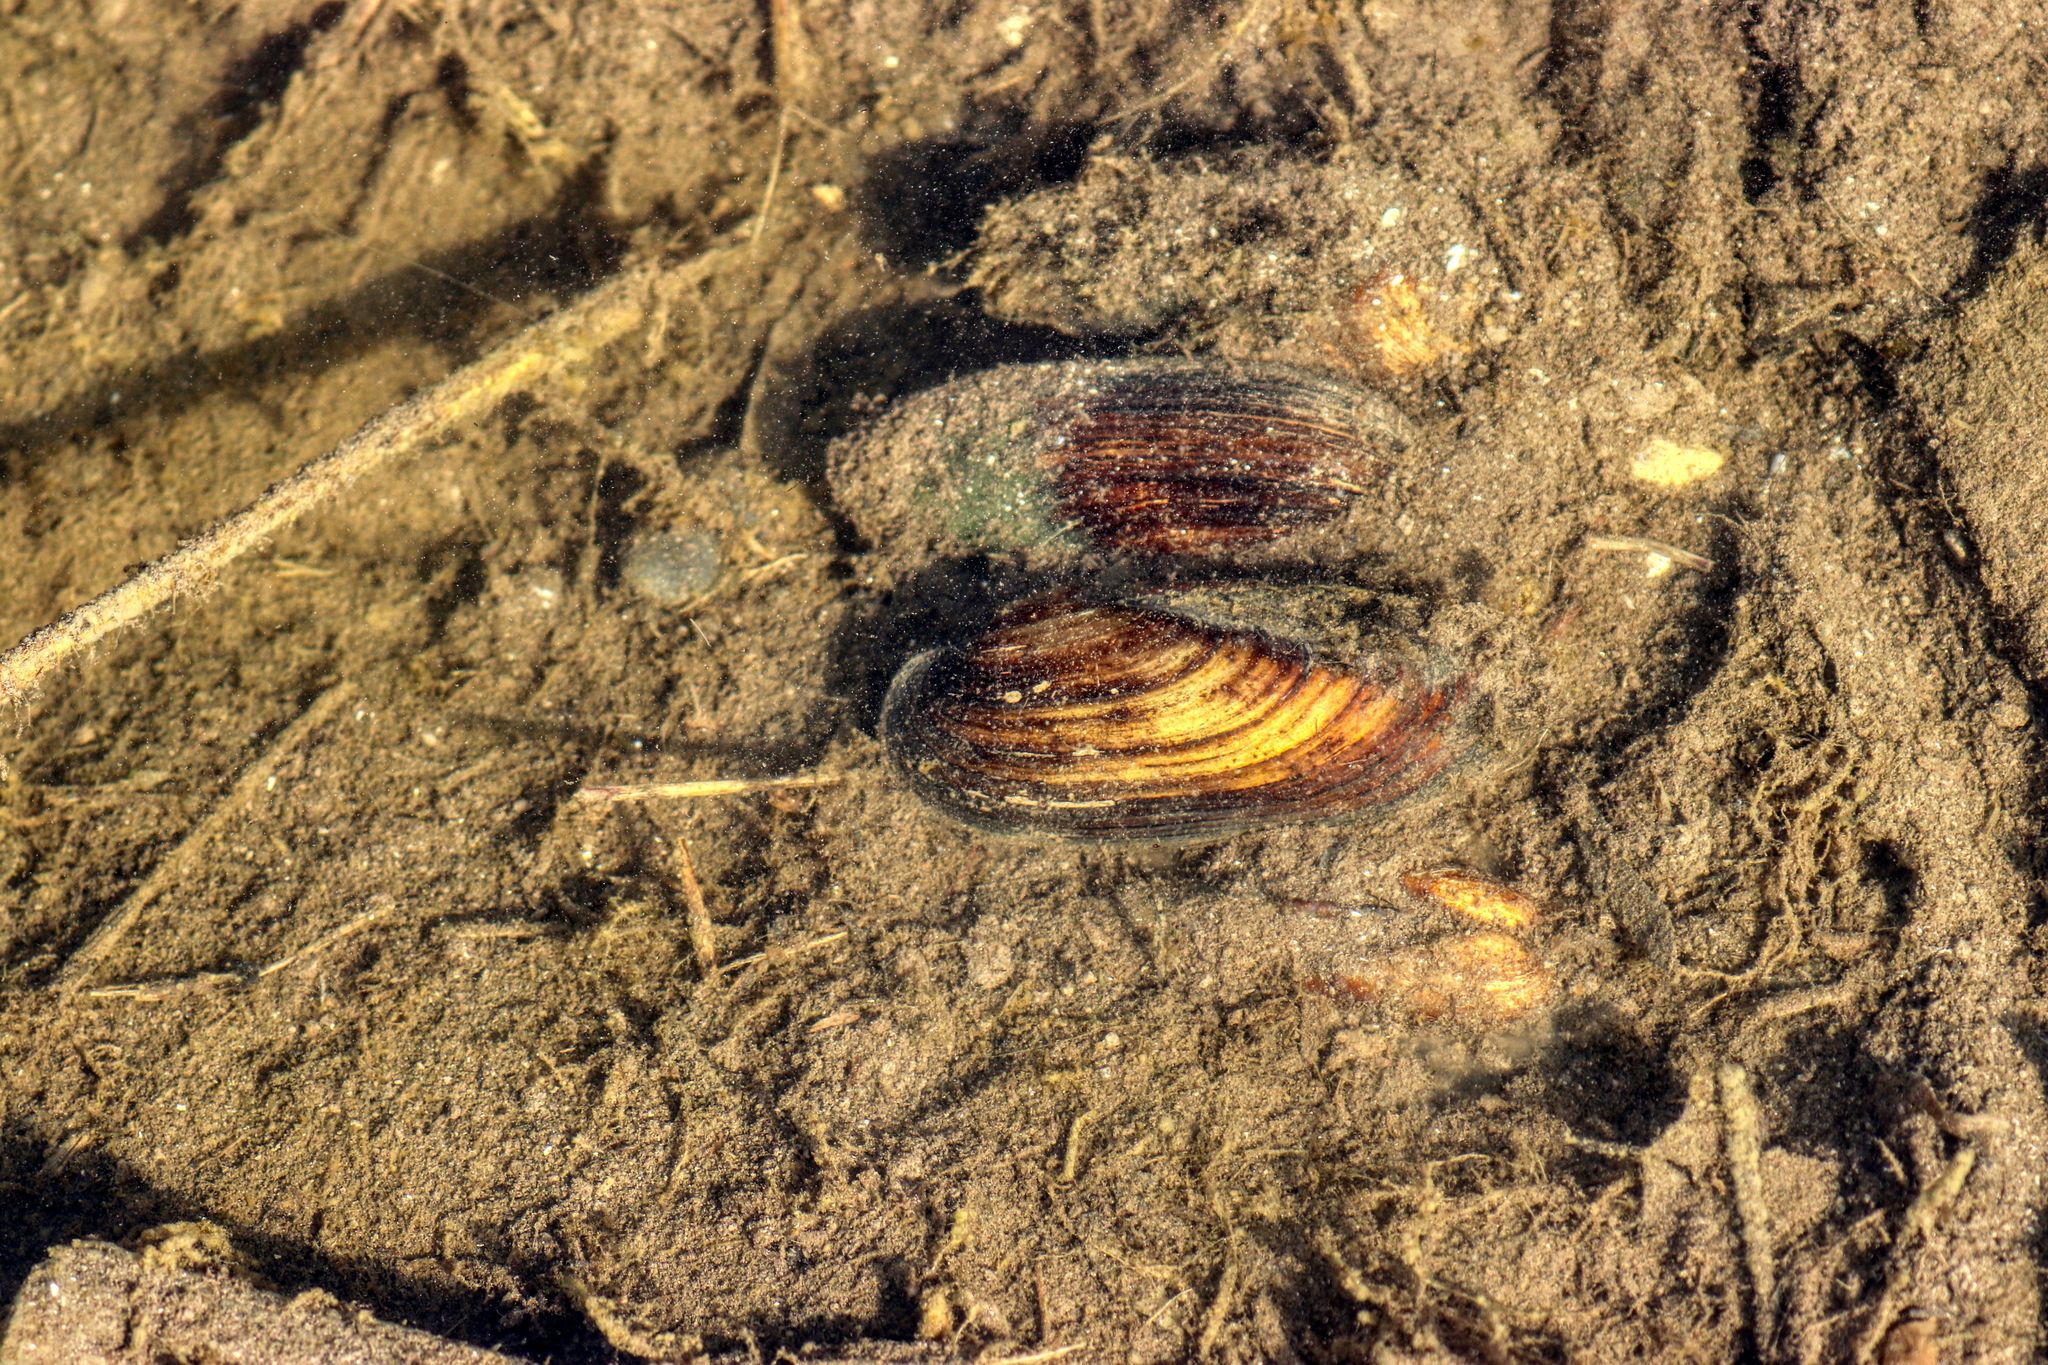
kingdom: Animalia
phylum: Mollusca
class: Bivalvia
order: Unionida
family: Unionidae
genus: Unio
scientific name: Unio pictorum
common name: Painter's mussel
